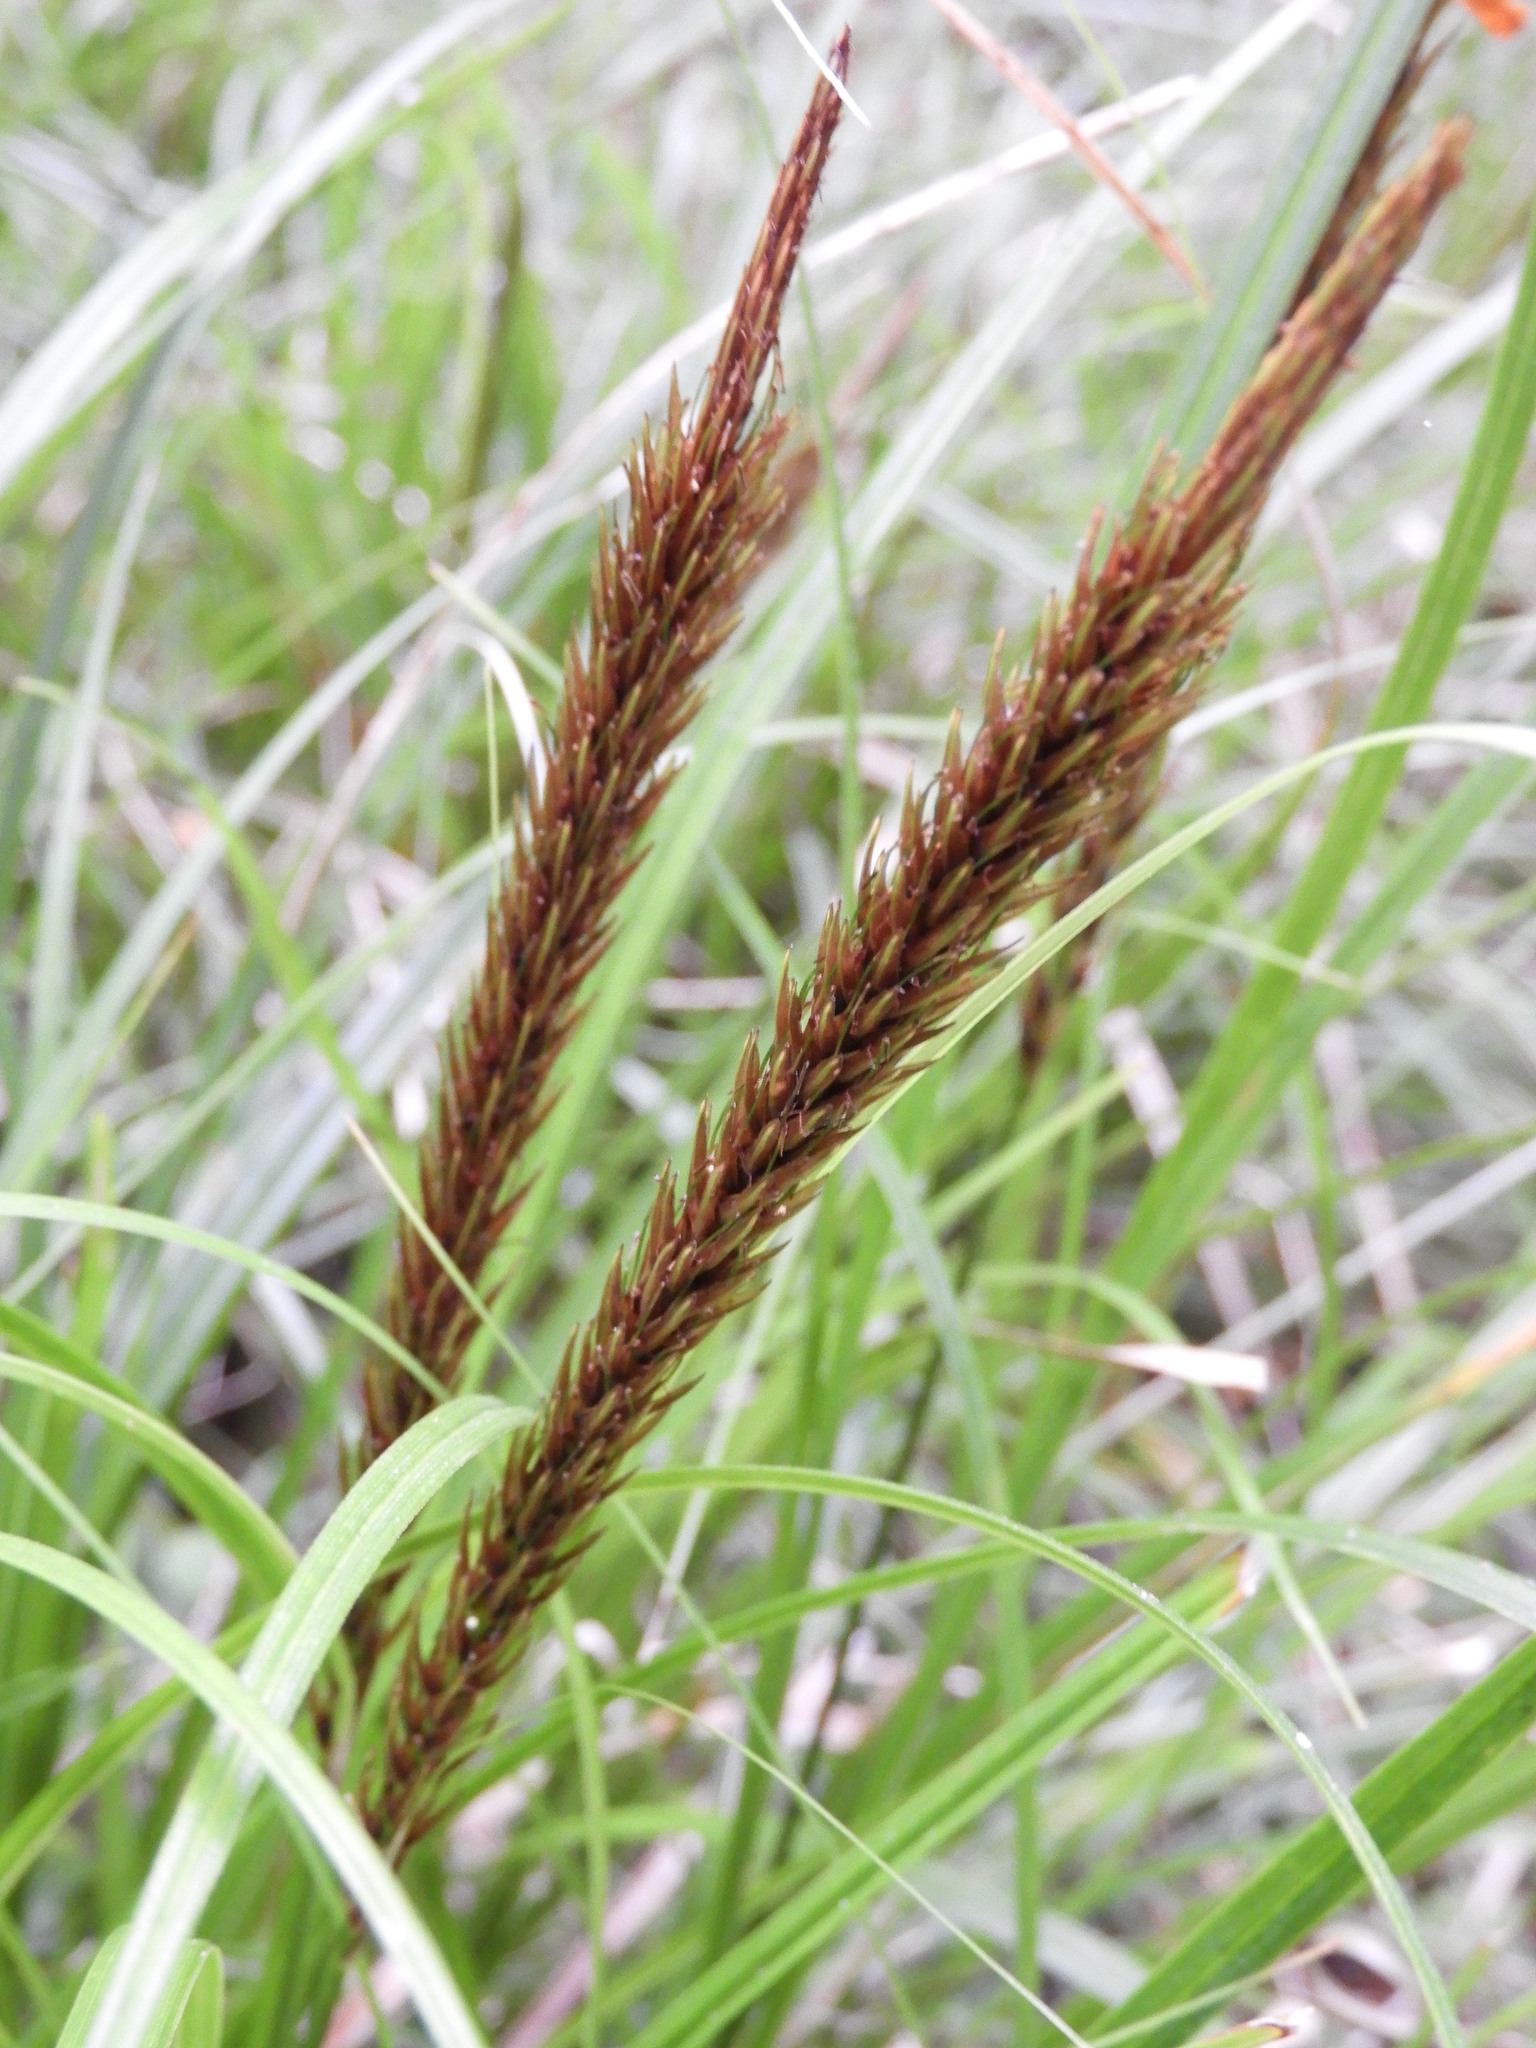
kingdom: Plantae
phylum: Tracheophyta
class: Liliopsida
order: Poales
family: Cyperaceae
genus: Carex
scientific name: Carex megalepis
